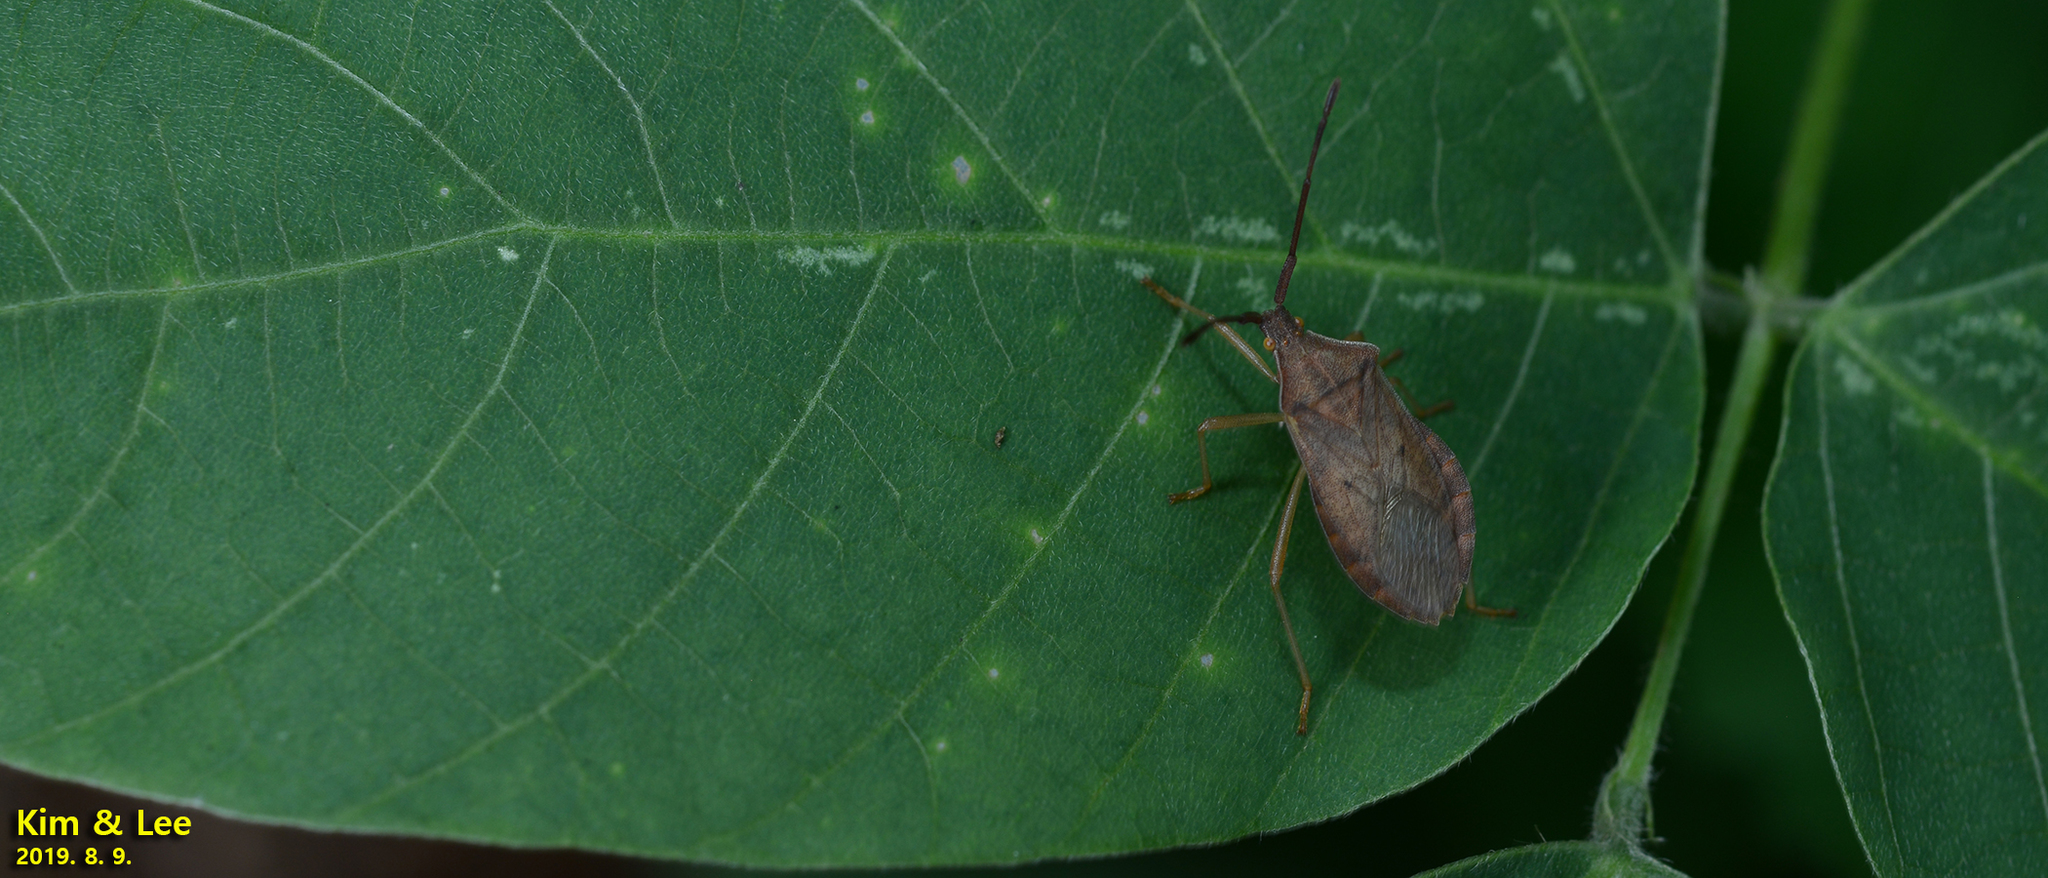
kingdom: Animalia
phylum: Arthropoda
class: Insecta
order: Hemiptera
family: Coreidae
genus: Homoeocerus
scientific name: Homoeocerus dilatatus
